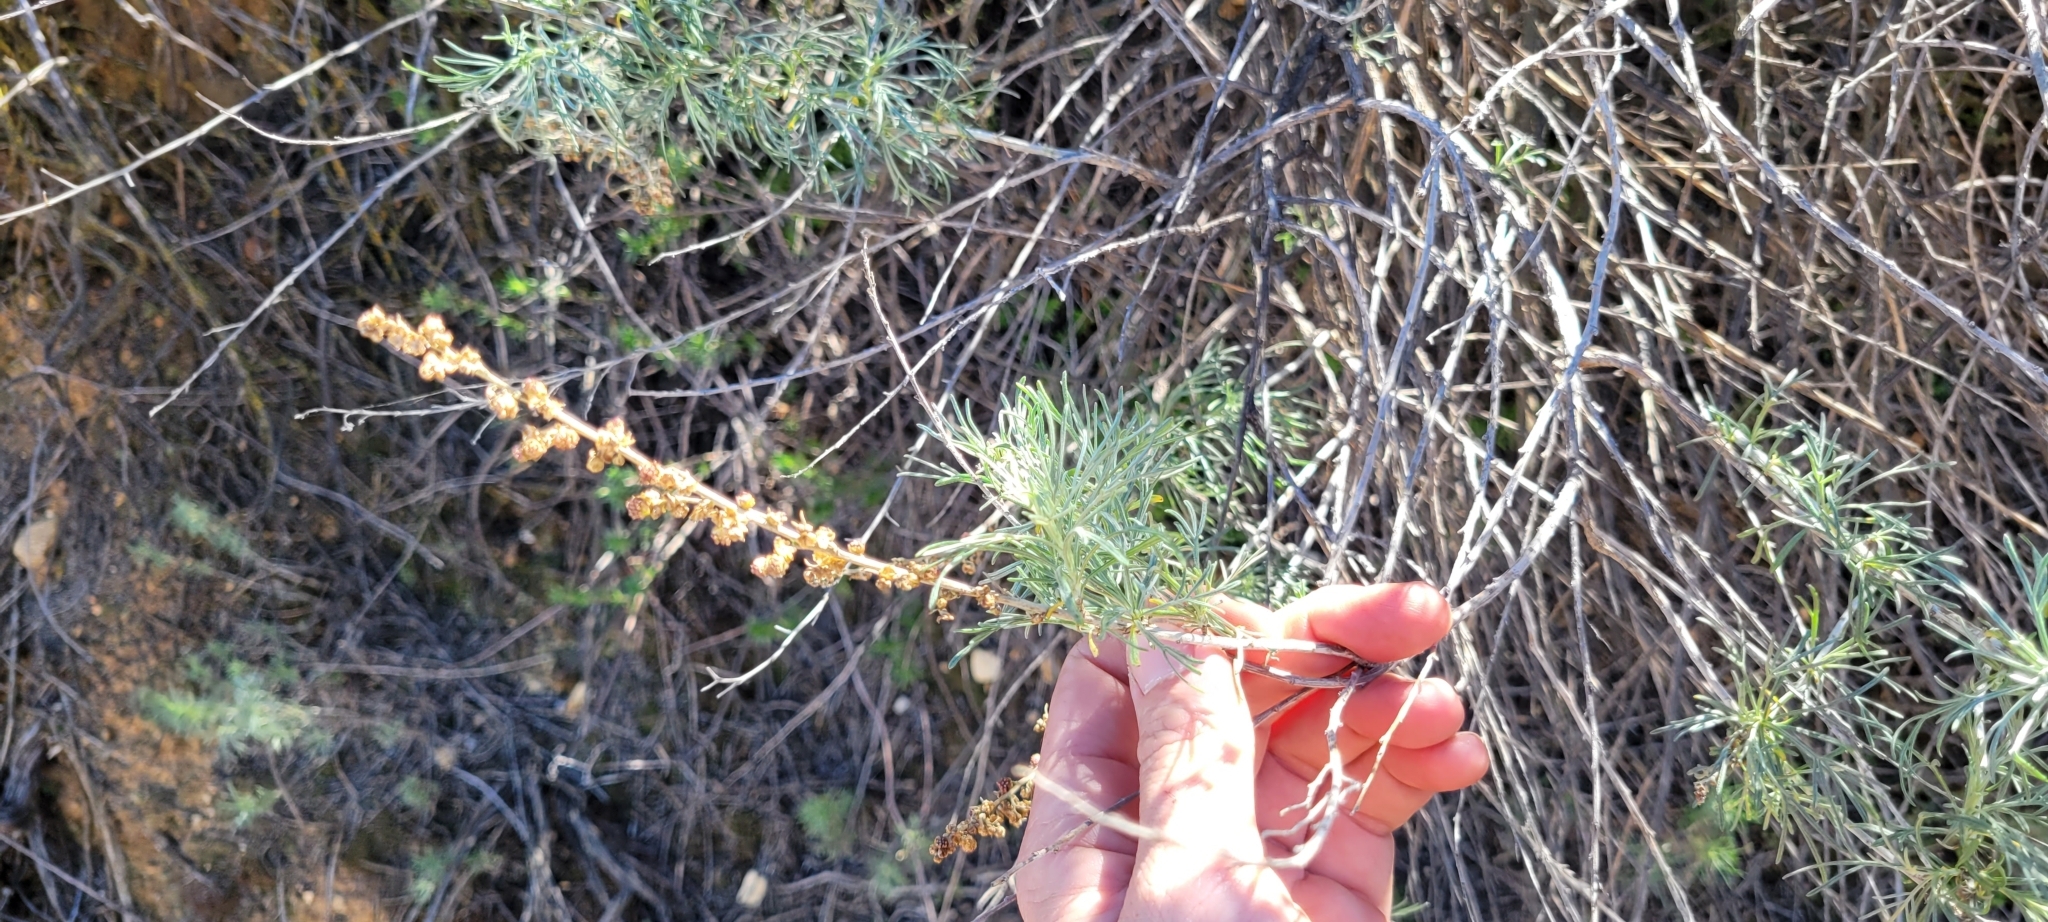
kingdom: Plantae
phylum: Tracheophyta
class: Magnoliopsida
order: Asterales
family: Asteraceae
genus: Artemisia
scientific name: Artemisia californica
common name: California sagebrush
